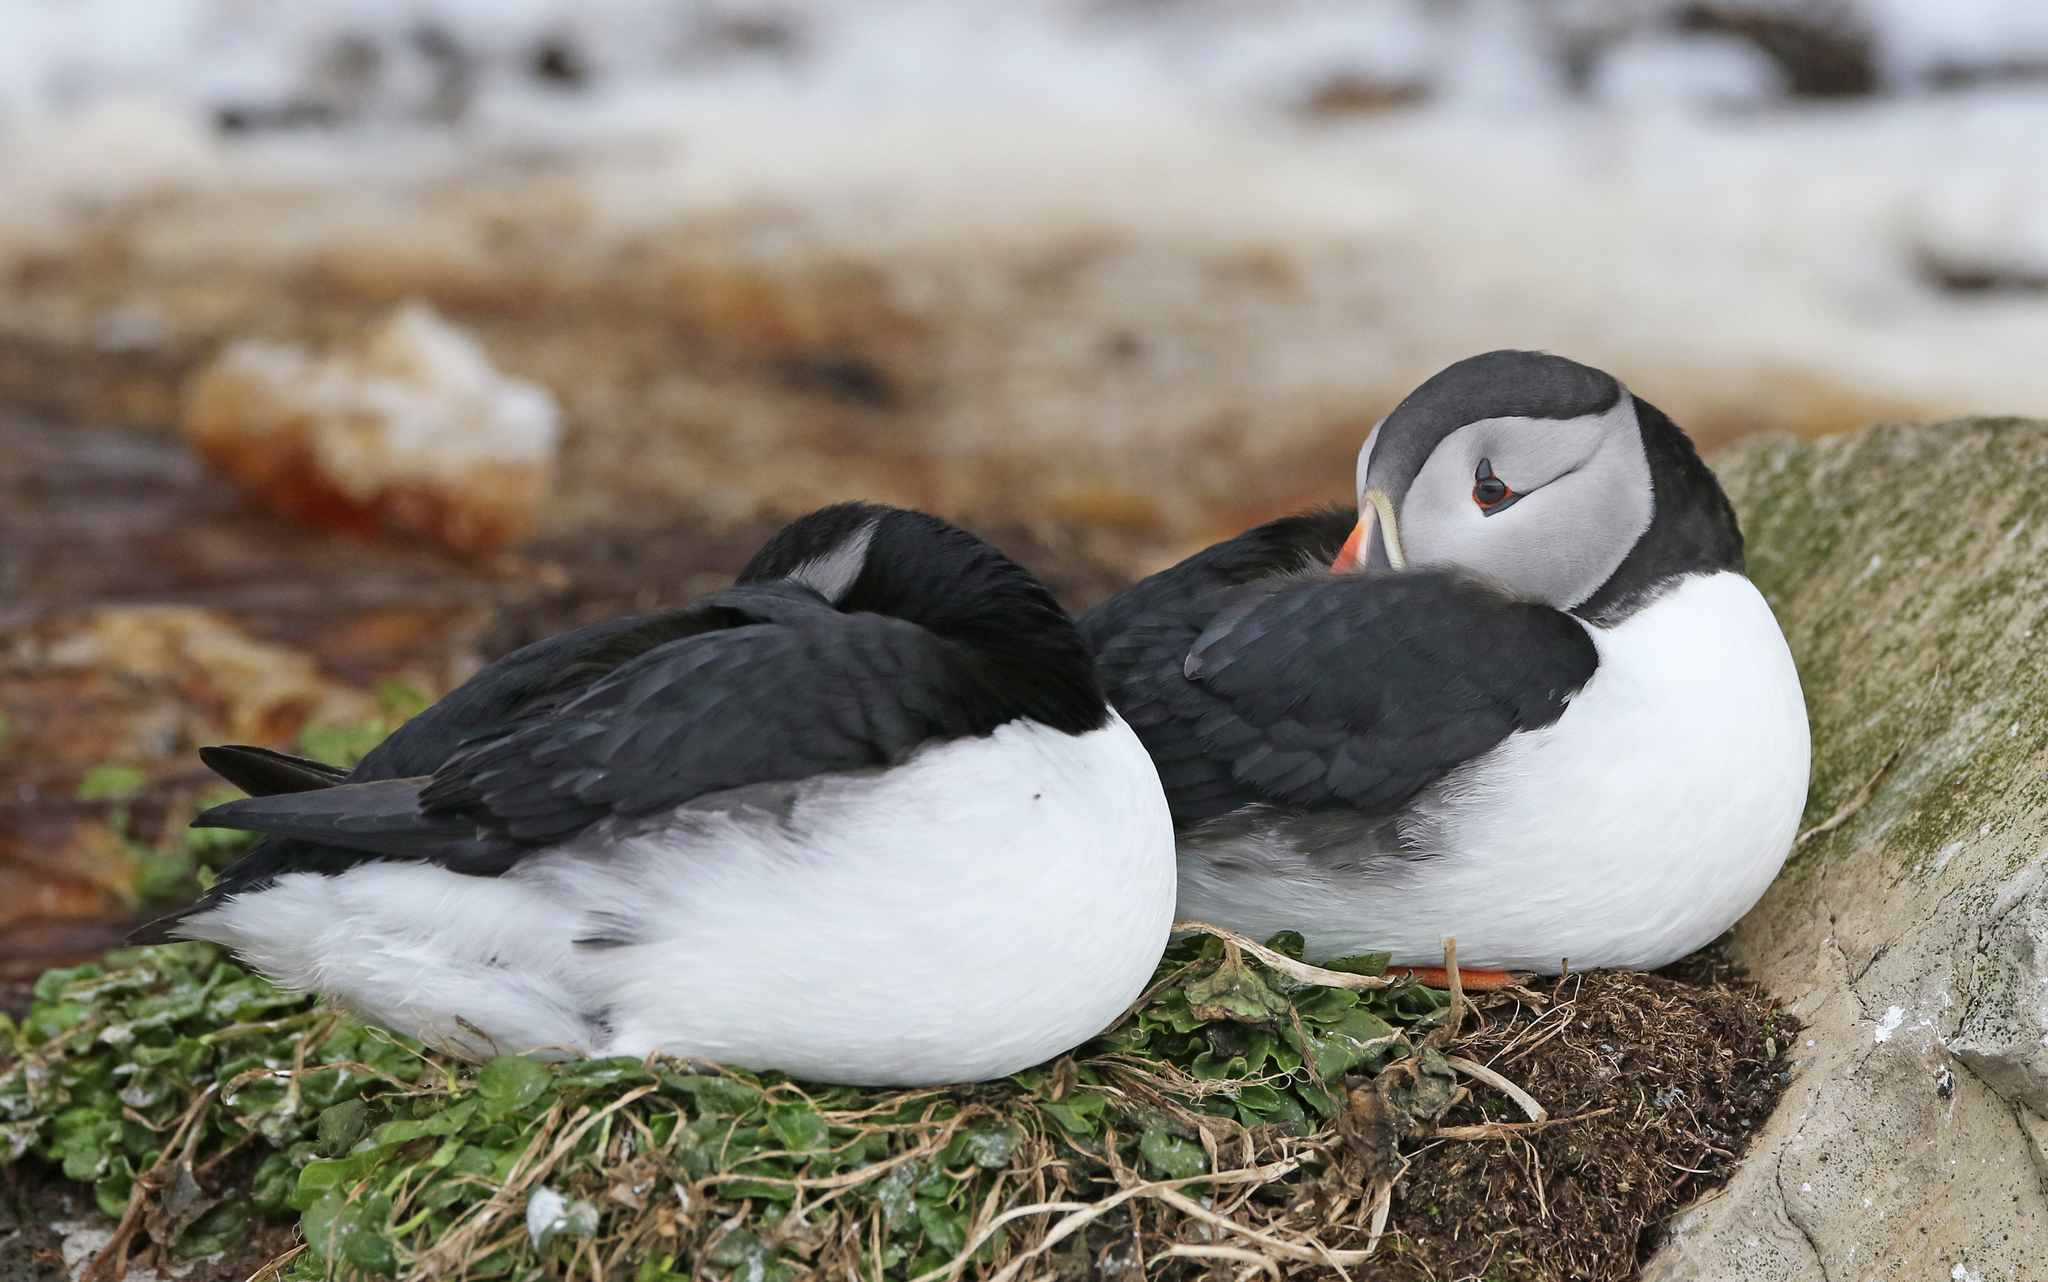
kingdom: Animalia
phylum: Chordata
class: Aves
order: Charadriiformes
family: Alcidae
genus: Fratercula
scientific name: Fratercula arctica
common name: Atlantic puffin
